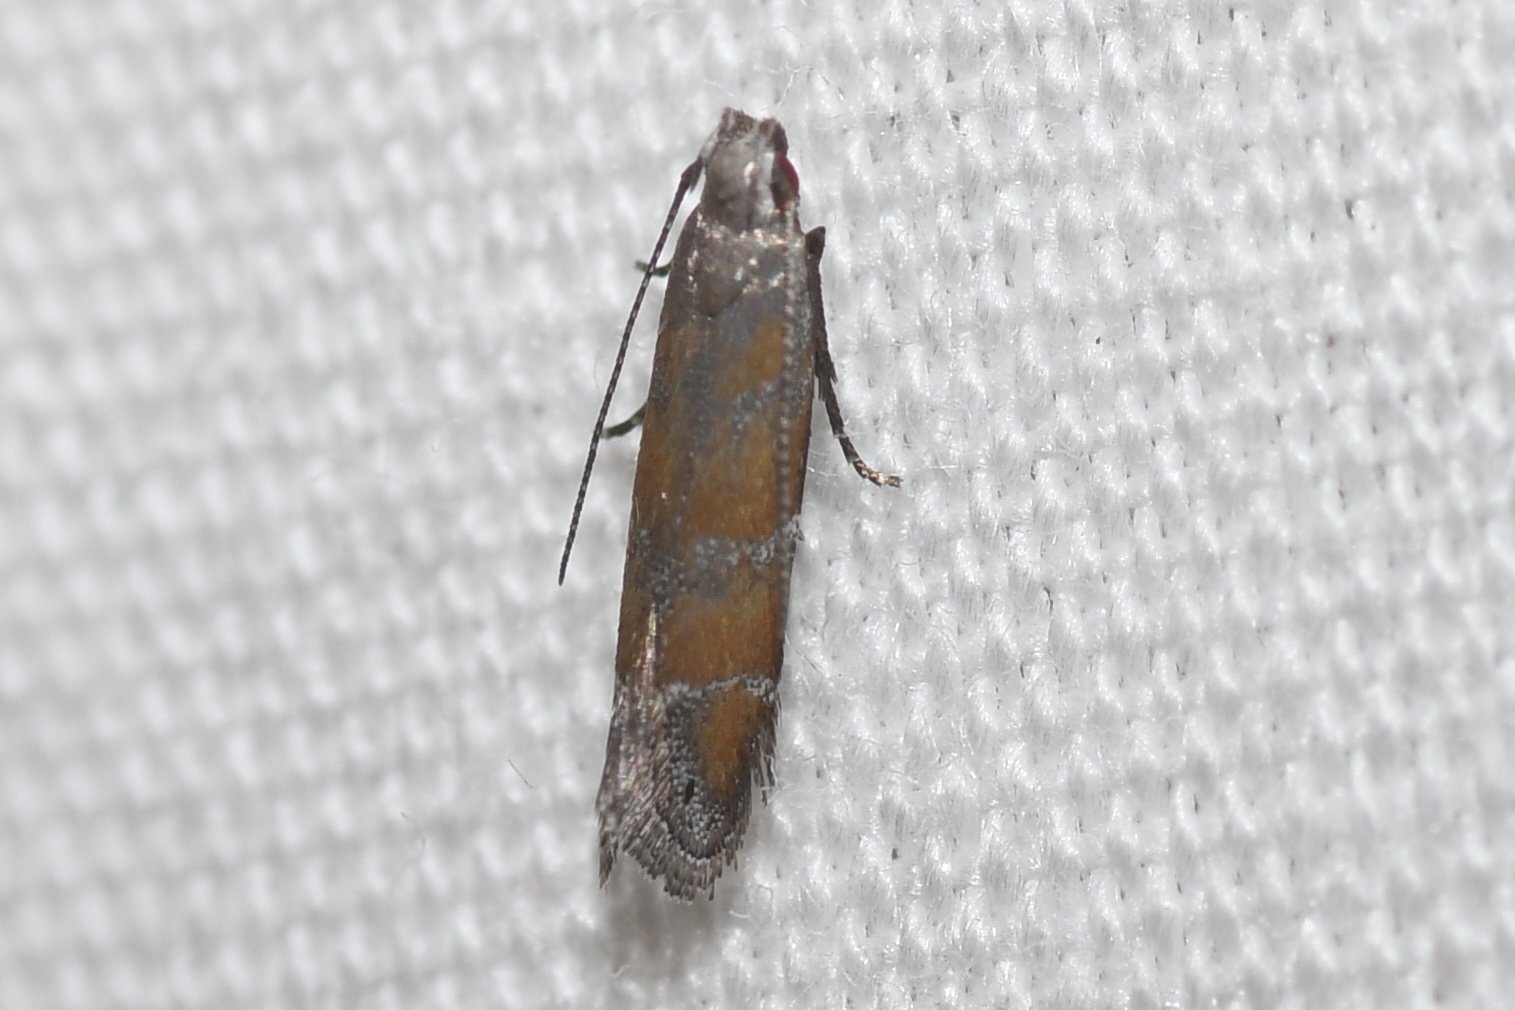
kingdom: Animalia
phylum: Arthropoda
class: Insecta
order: Lepidoptera
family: Gelechiidae
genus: Battaristis
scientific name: Battaristis vittella
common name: Orange stripe-backed moth
